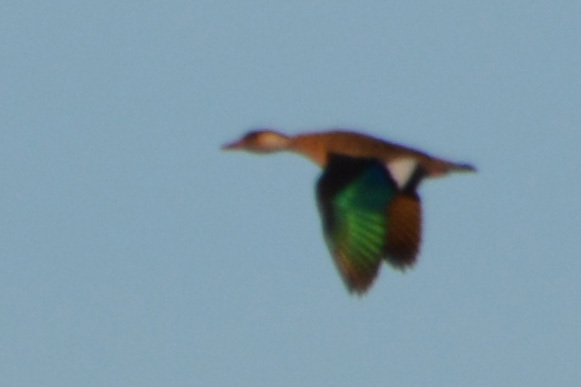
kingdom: Animalia
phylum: Chordata
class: Aves
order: Anseriformes
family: Anatidae
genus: Amazonetta
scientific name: Amazonetta brasiliensis
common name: Brazilian teal
